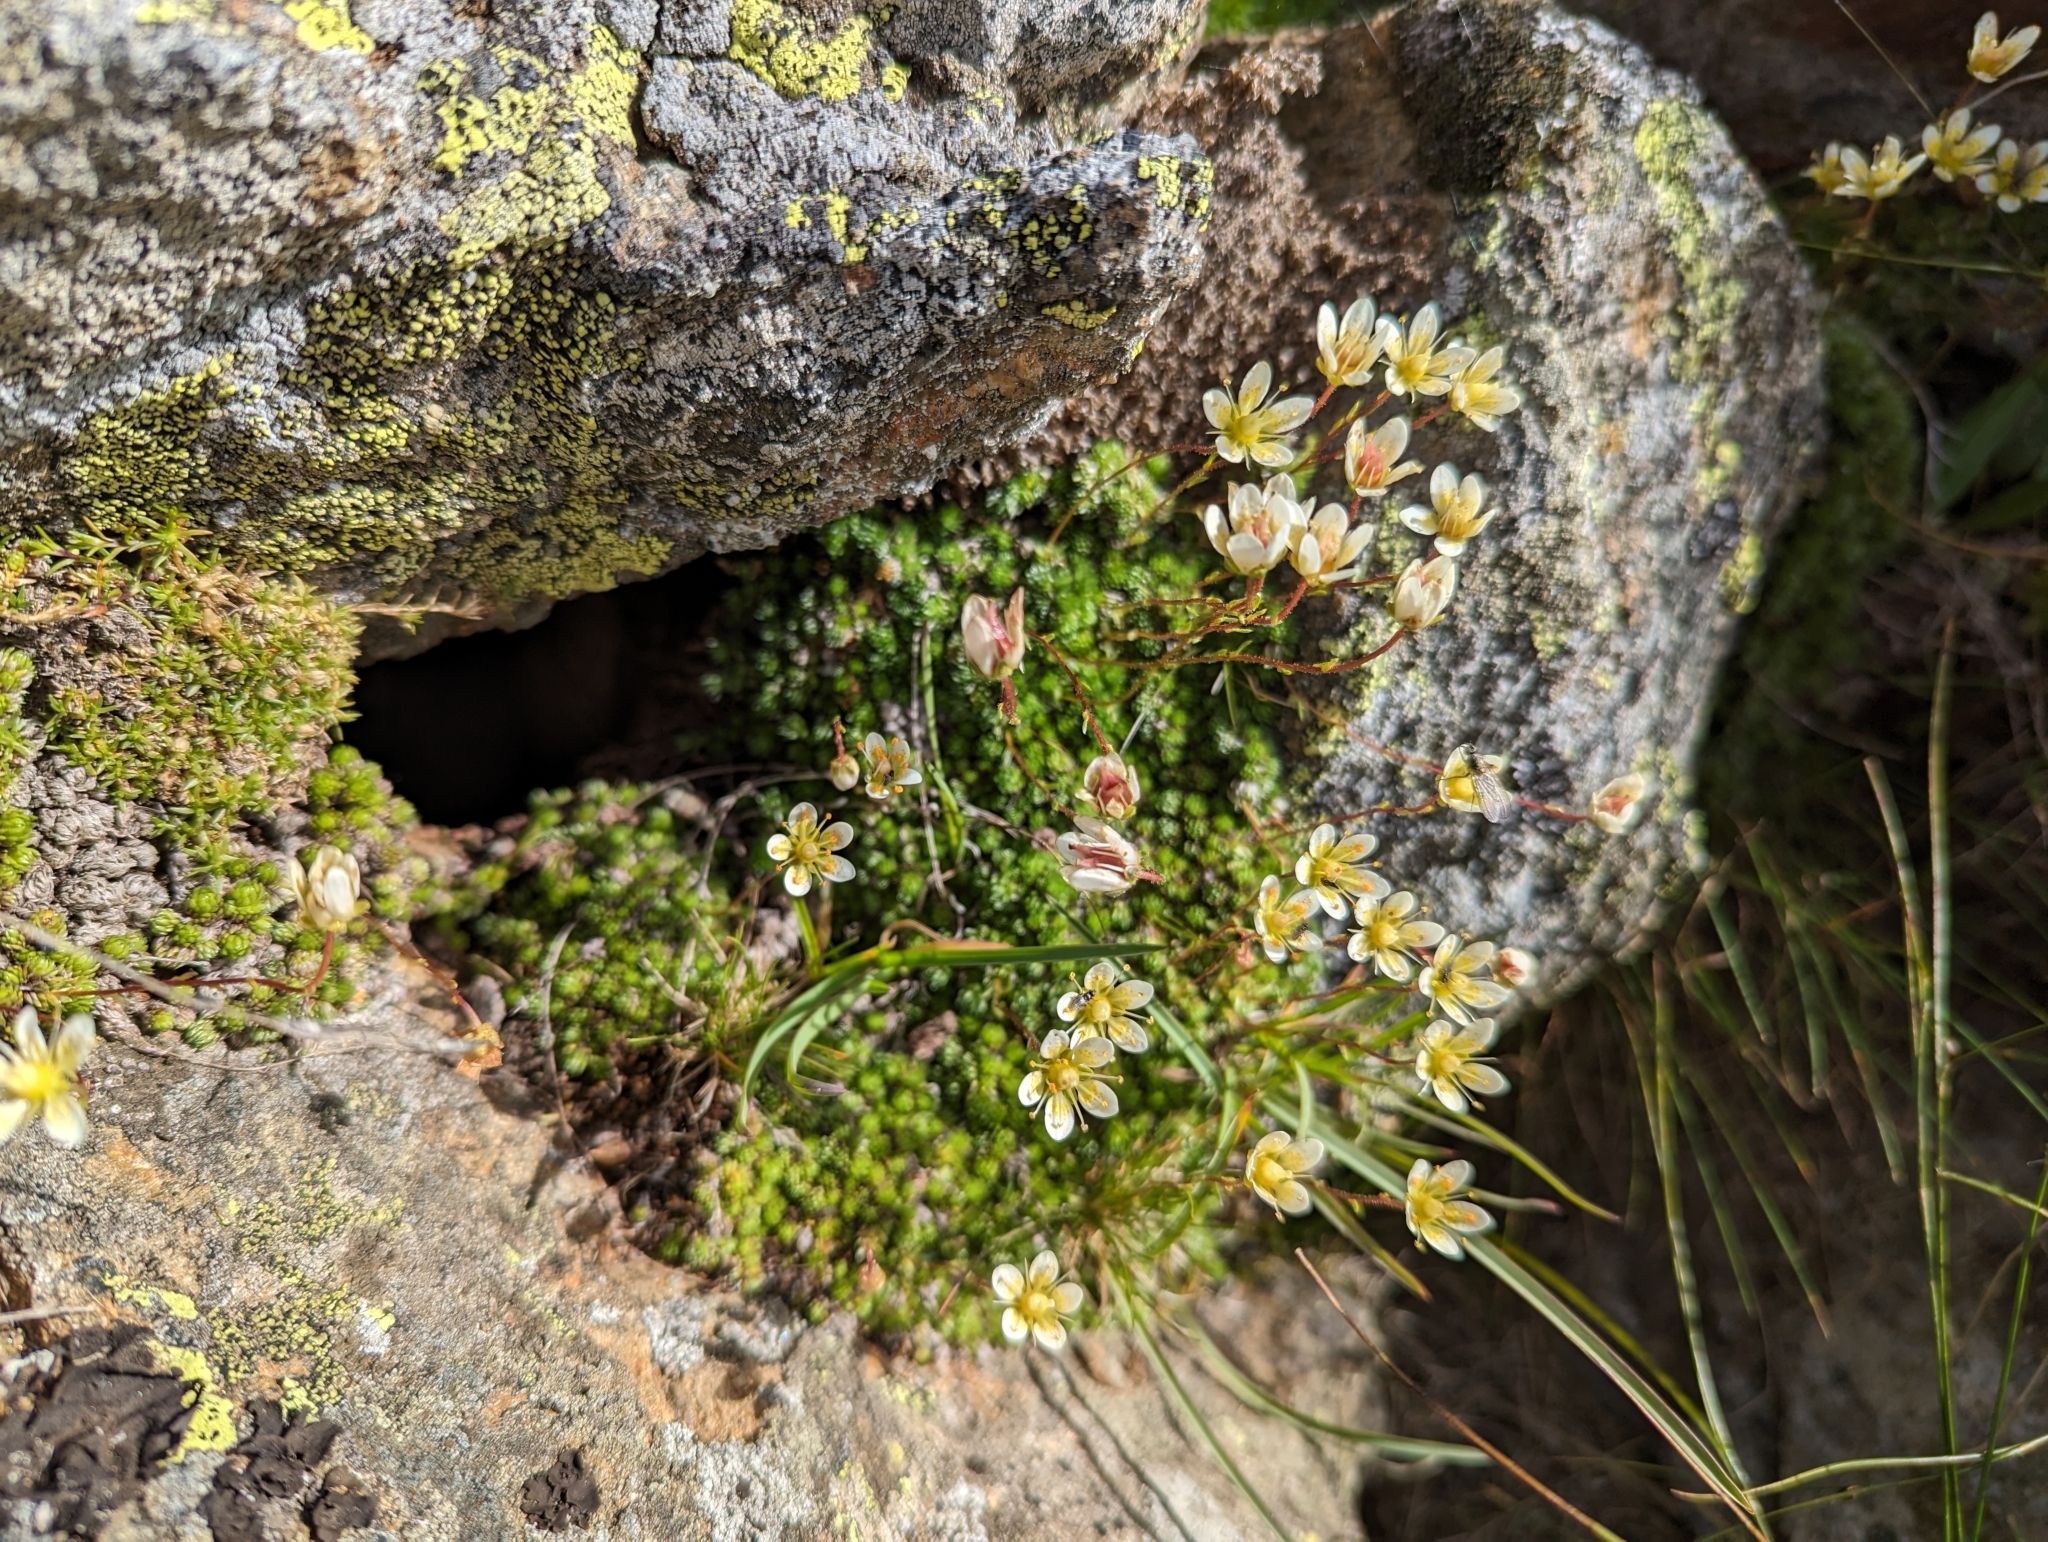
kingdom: Plantae
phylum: Tracheophyta
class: Magnoliopsida
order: Saxifragales
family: Saxifragaceae
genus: Saxifraga
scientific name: Saxifraga bryoides
